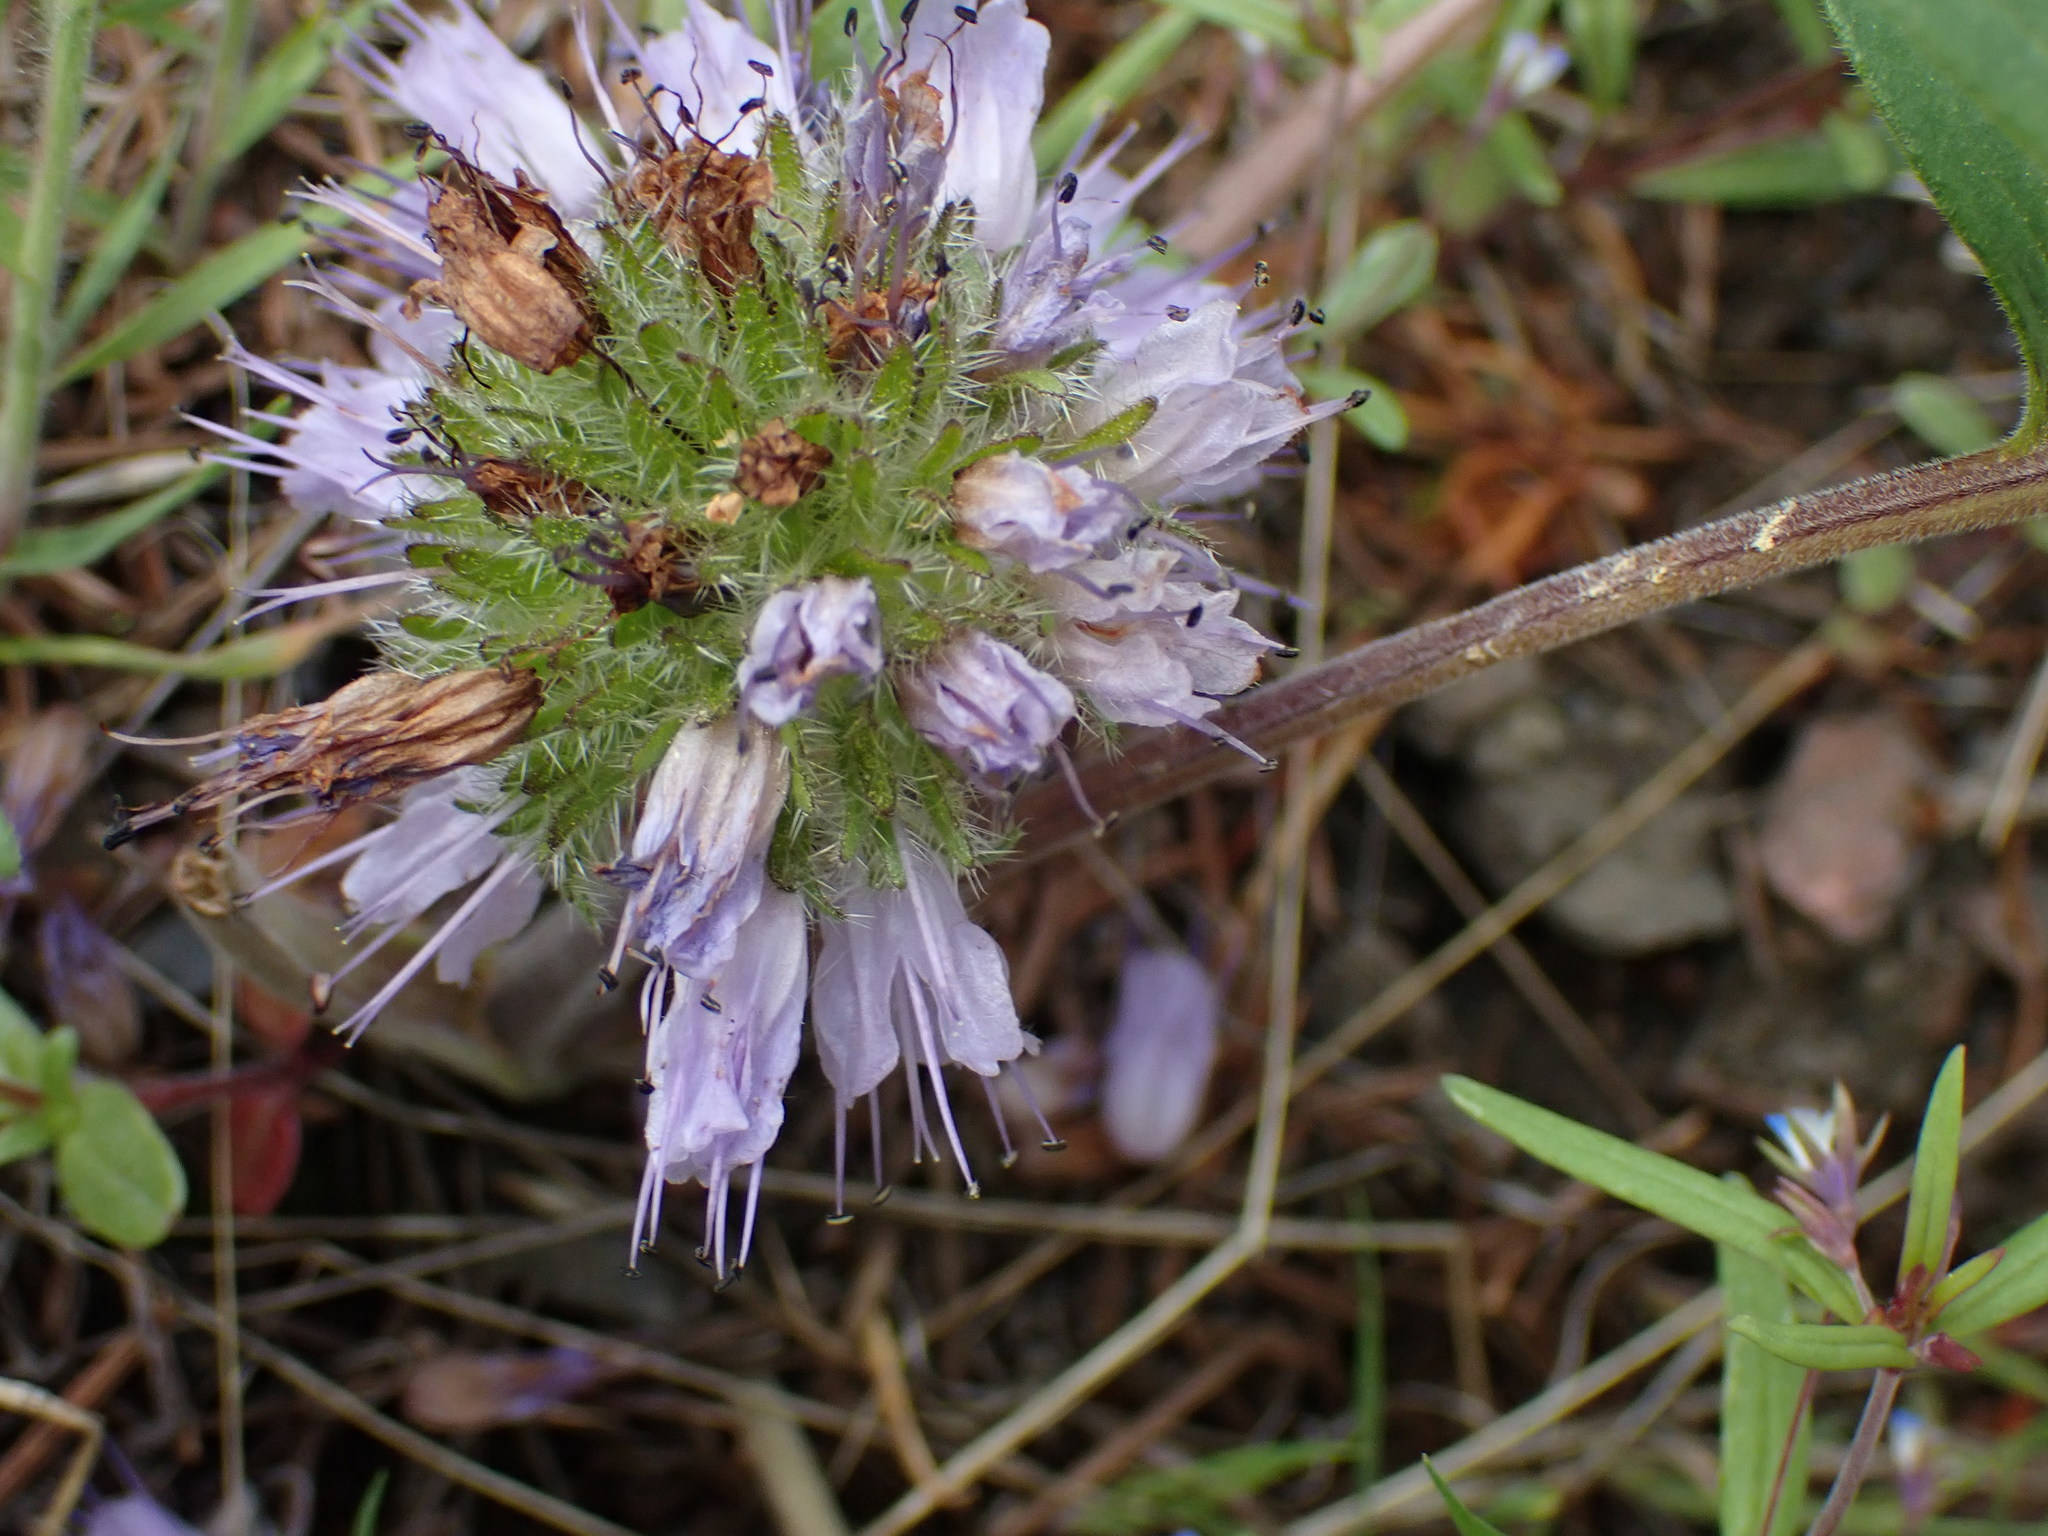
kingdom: Plantae
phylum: Tracheophyta
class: Magnoliopsida
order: Boraginales
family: Hydrophyllaceae
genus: Hydrophyllum
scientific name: Hydrophyllum capitatum
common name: Woollen-breeches
